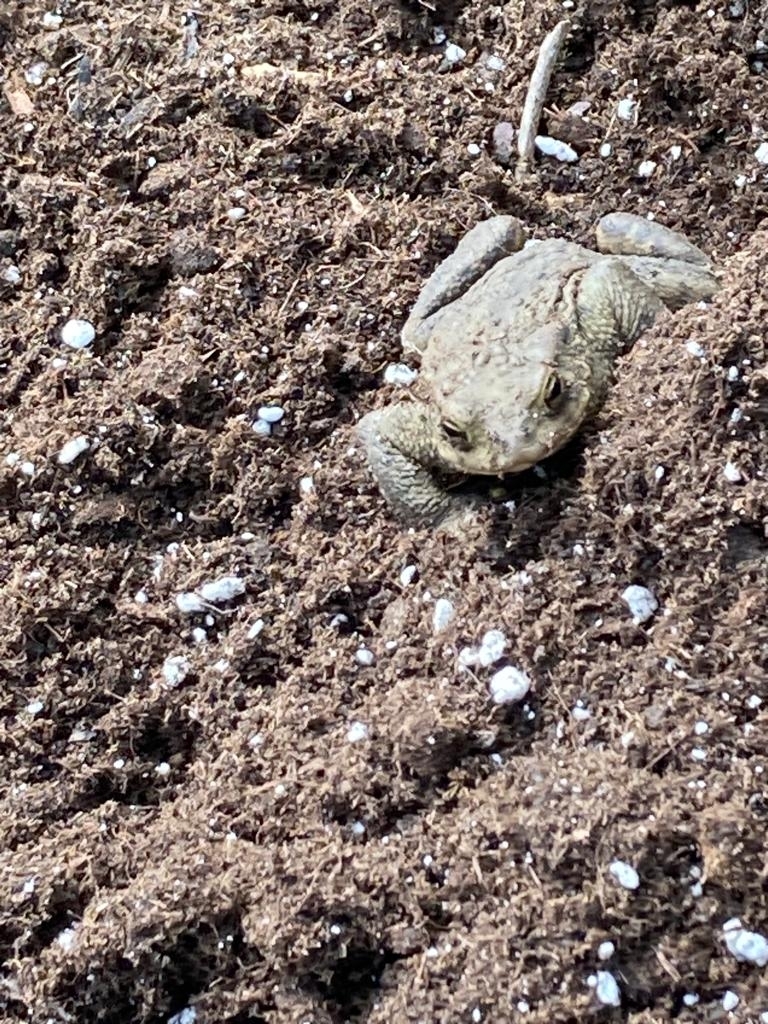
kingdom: Animalia
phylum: Chordata
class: Amphibia
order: Anura
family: Bufonidae
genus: Bufo
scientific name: Bufo bufo
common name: Common toad
